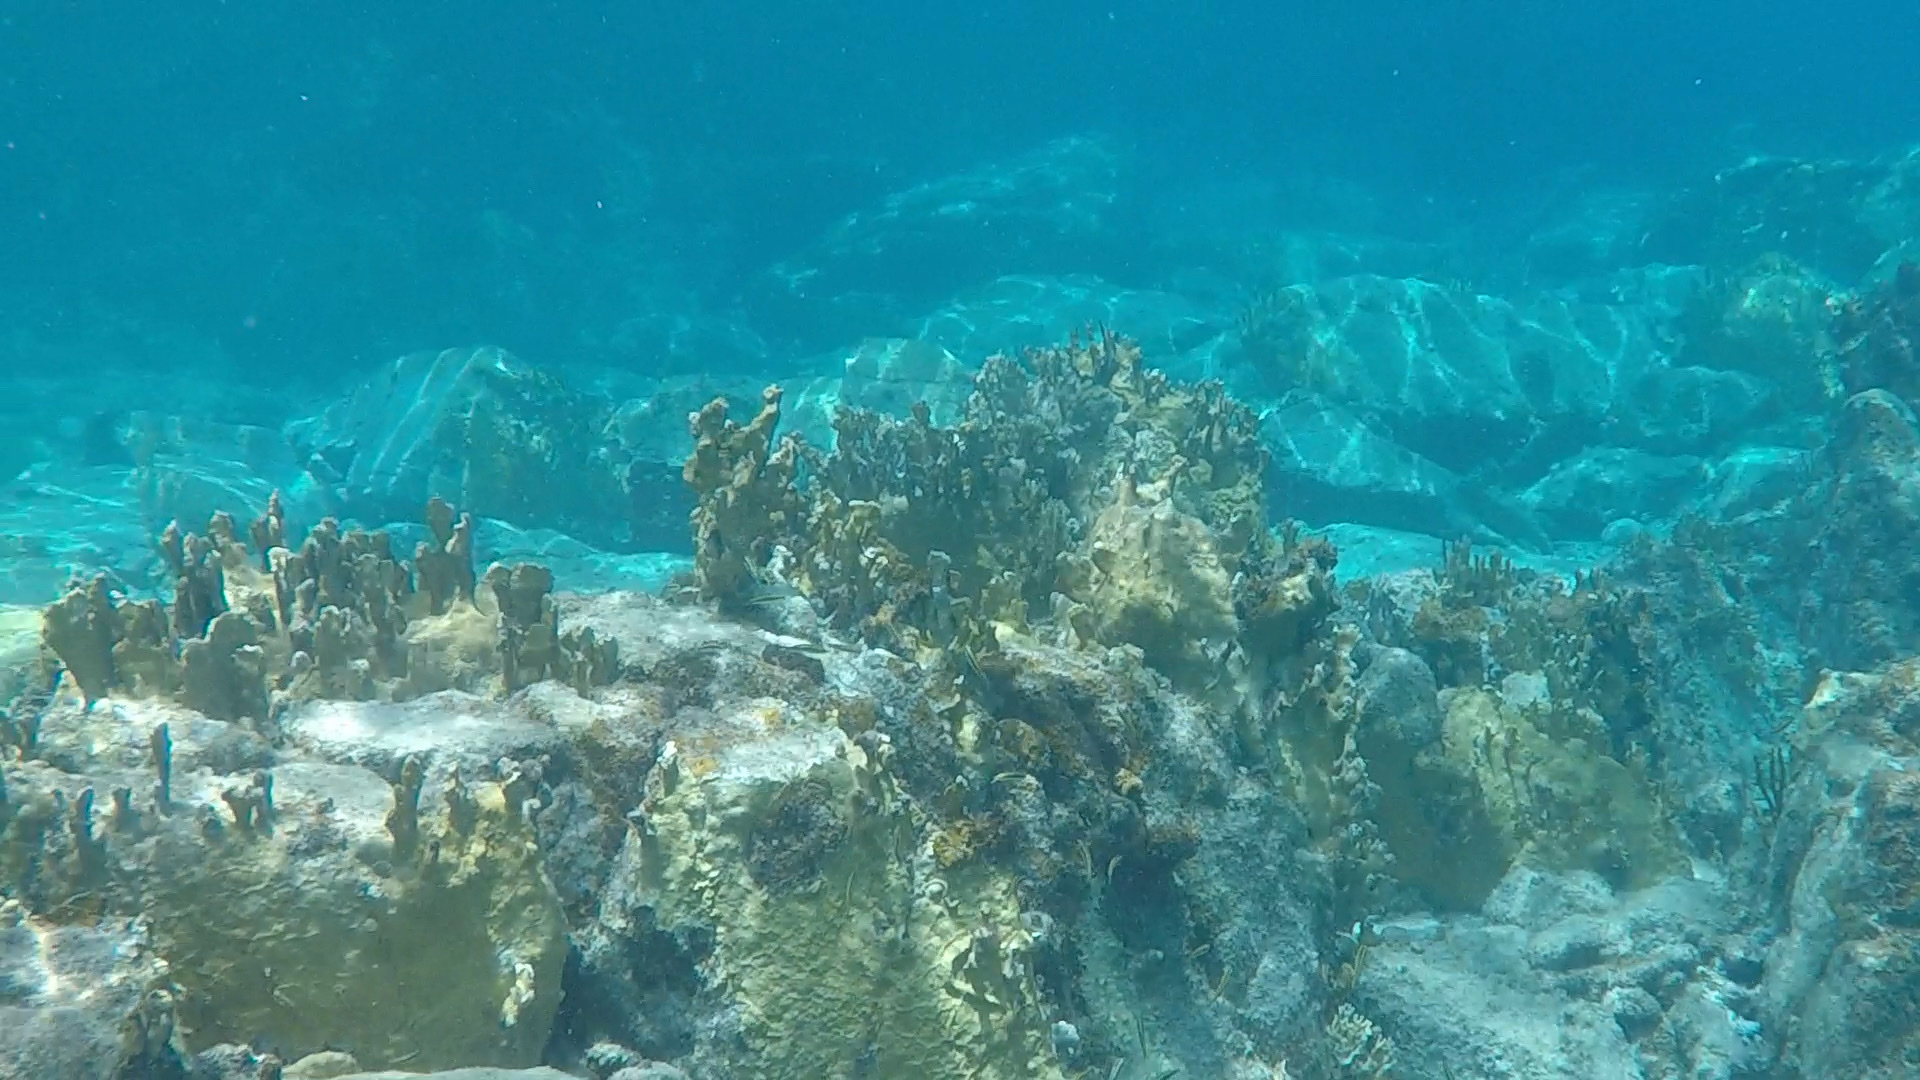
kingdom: Animalia
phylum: Cnidaria
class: Hydrozoa
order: Anthoathecata
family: Milleporidae
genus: Millepora
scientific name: Millepora complanata
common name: Bladed fire coral
